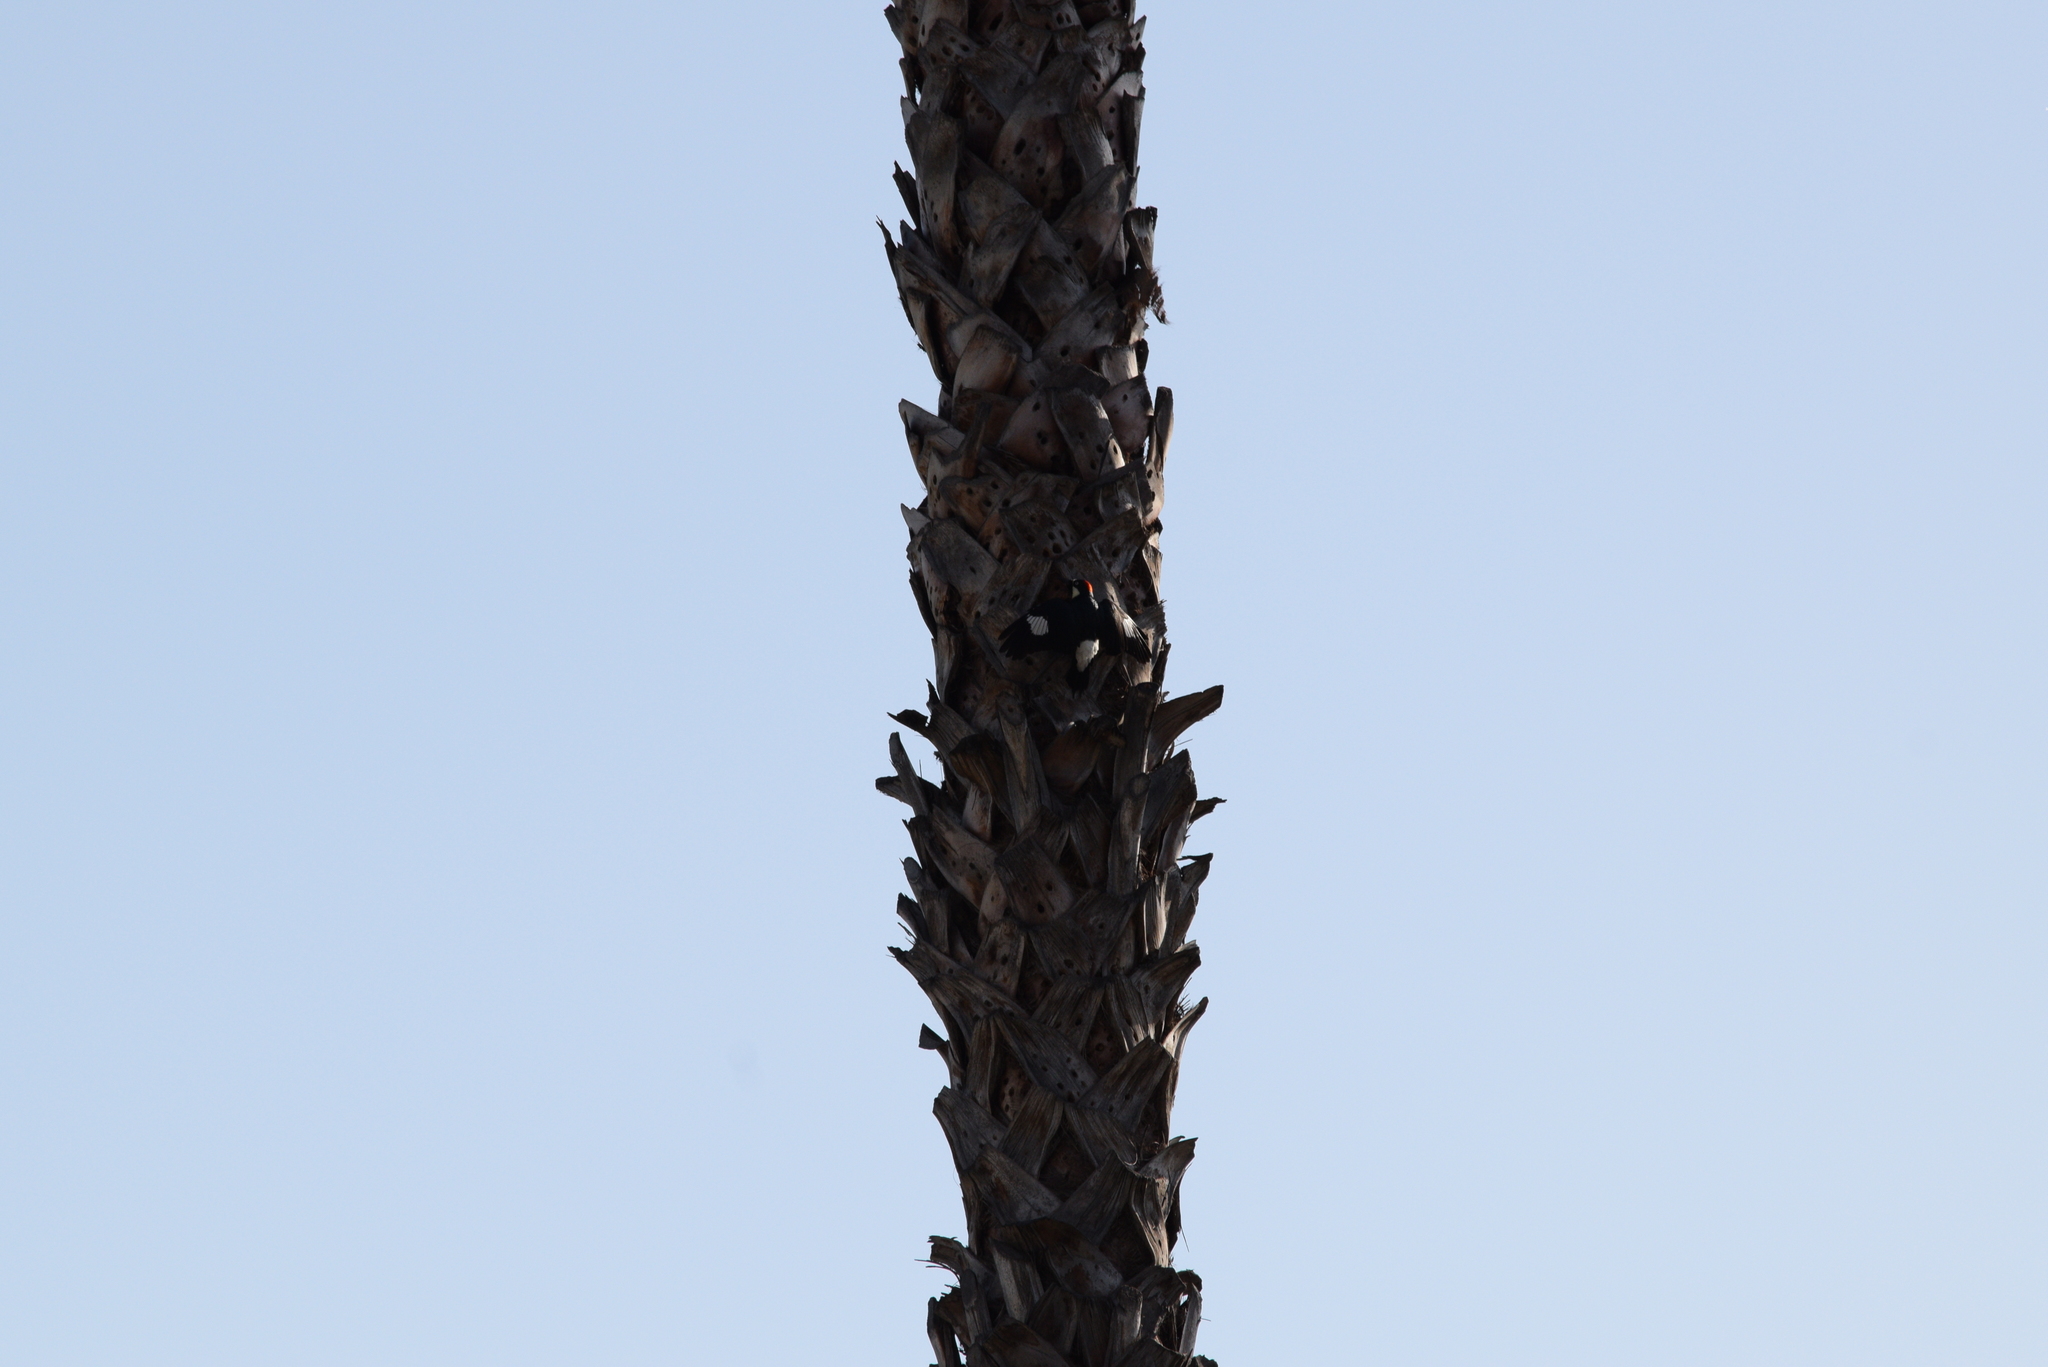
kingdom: Animalia
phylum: Chordata
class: Aves
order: Piciformes
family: Picidae
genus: Melanerpes
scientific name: Melanerpes formicivorus
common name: Acorn woodpecker
